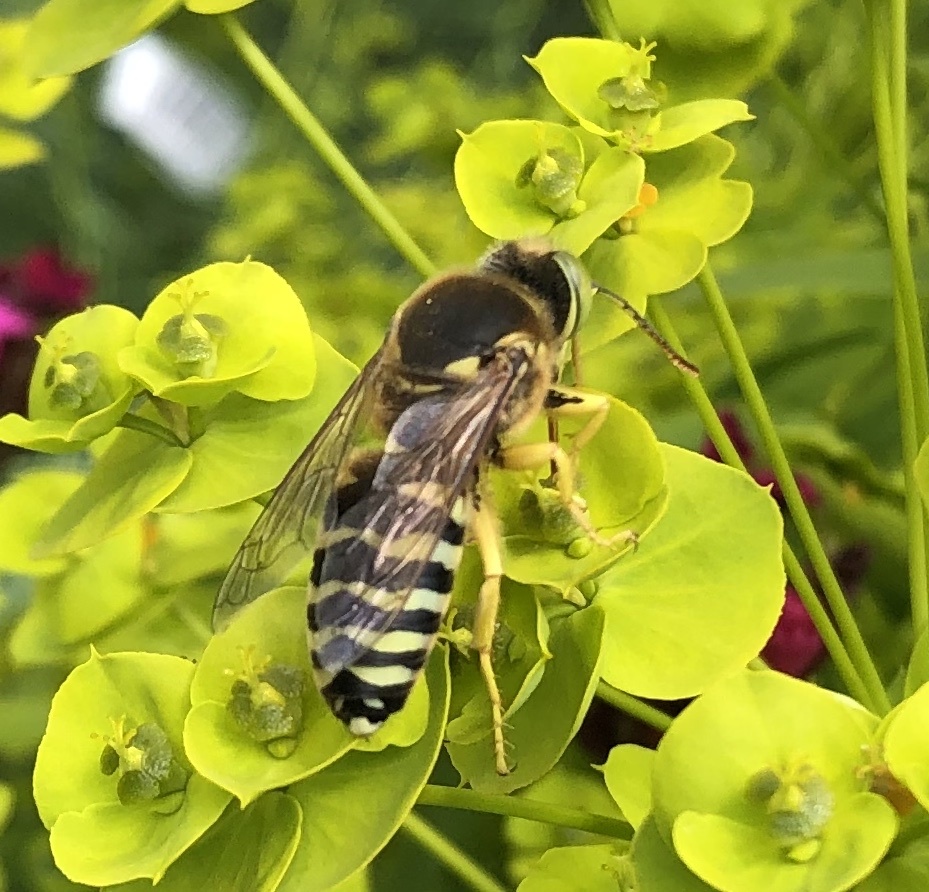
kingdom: Animalia
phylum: Arthropoda
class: Insecta
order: Hymenoptera
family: Crabronidae
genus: Bembix
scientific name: Bembix rostrata
